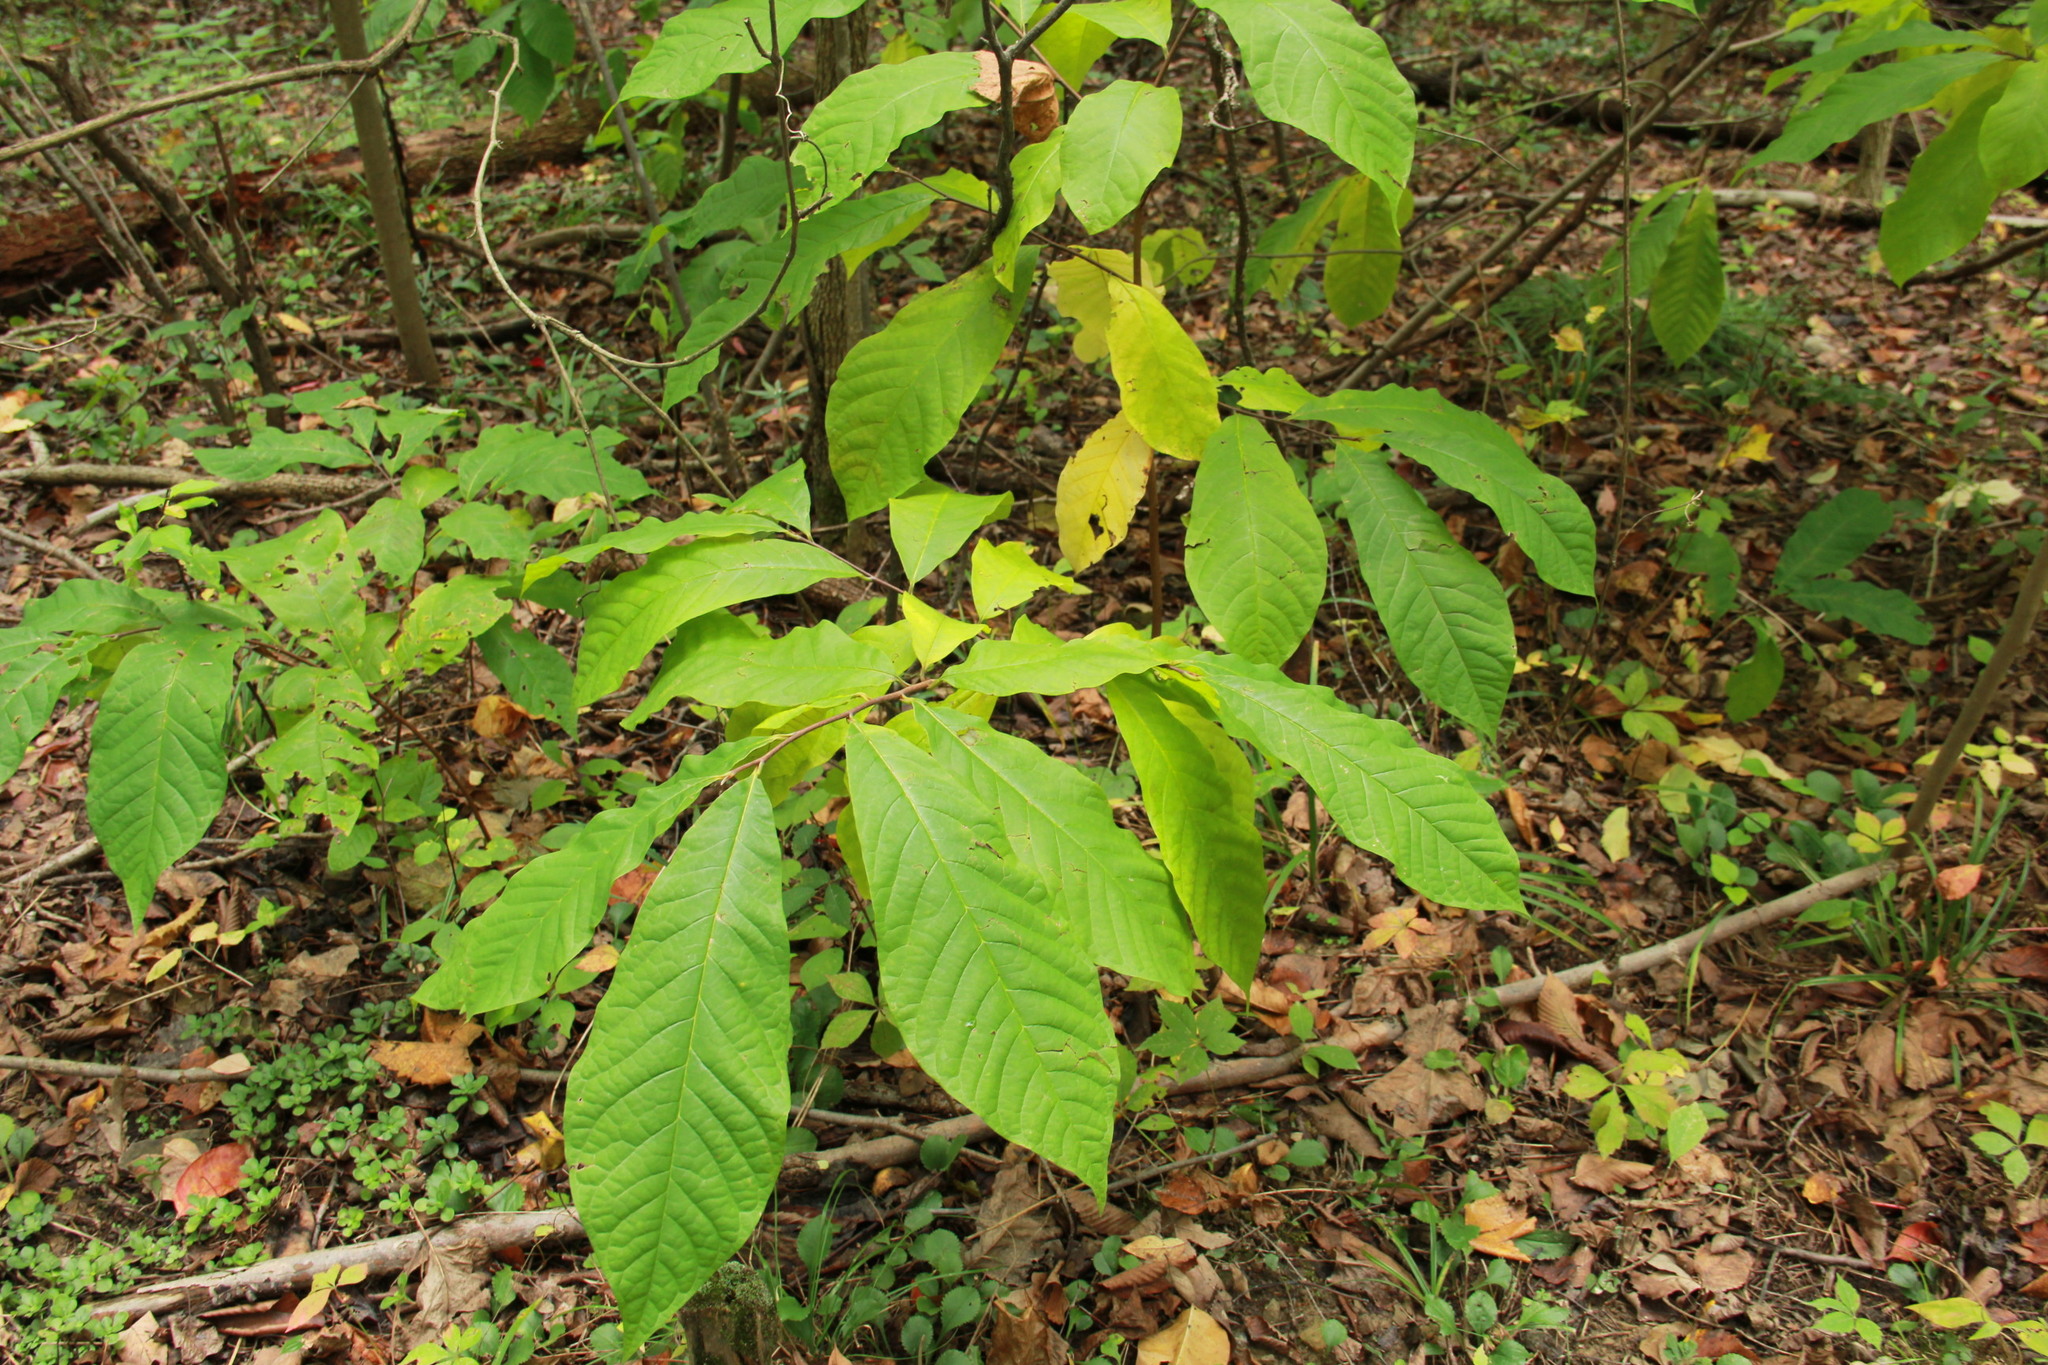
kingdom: Plantae
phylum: Tracheophyta
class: Magnoliopsida
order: Magnoliales
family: Annonaceae
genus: Asimina
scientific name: Asimina triloba
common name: Dog-banana
